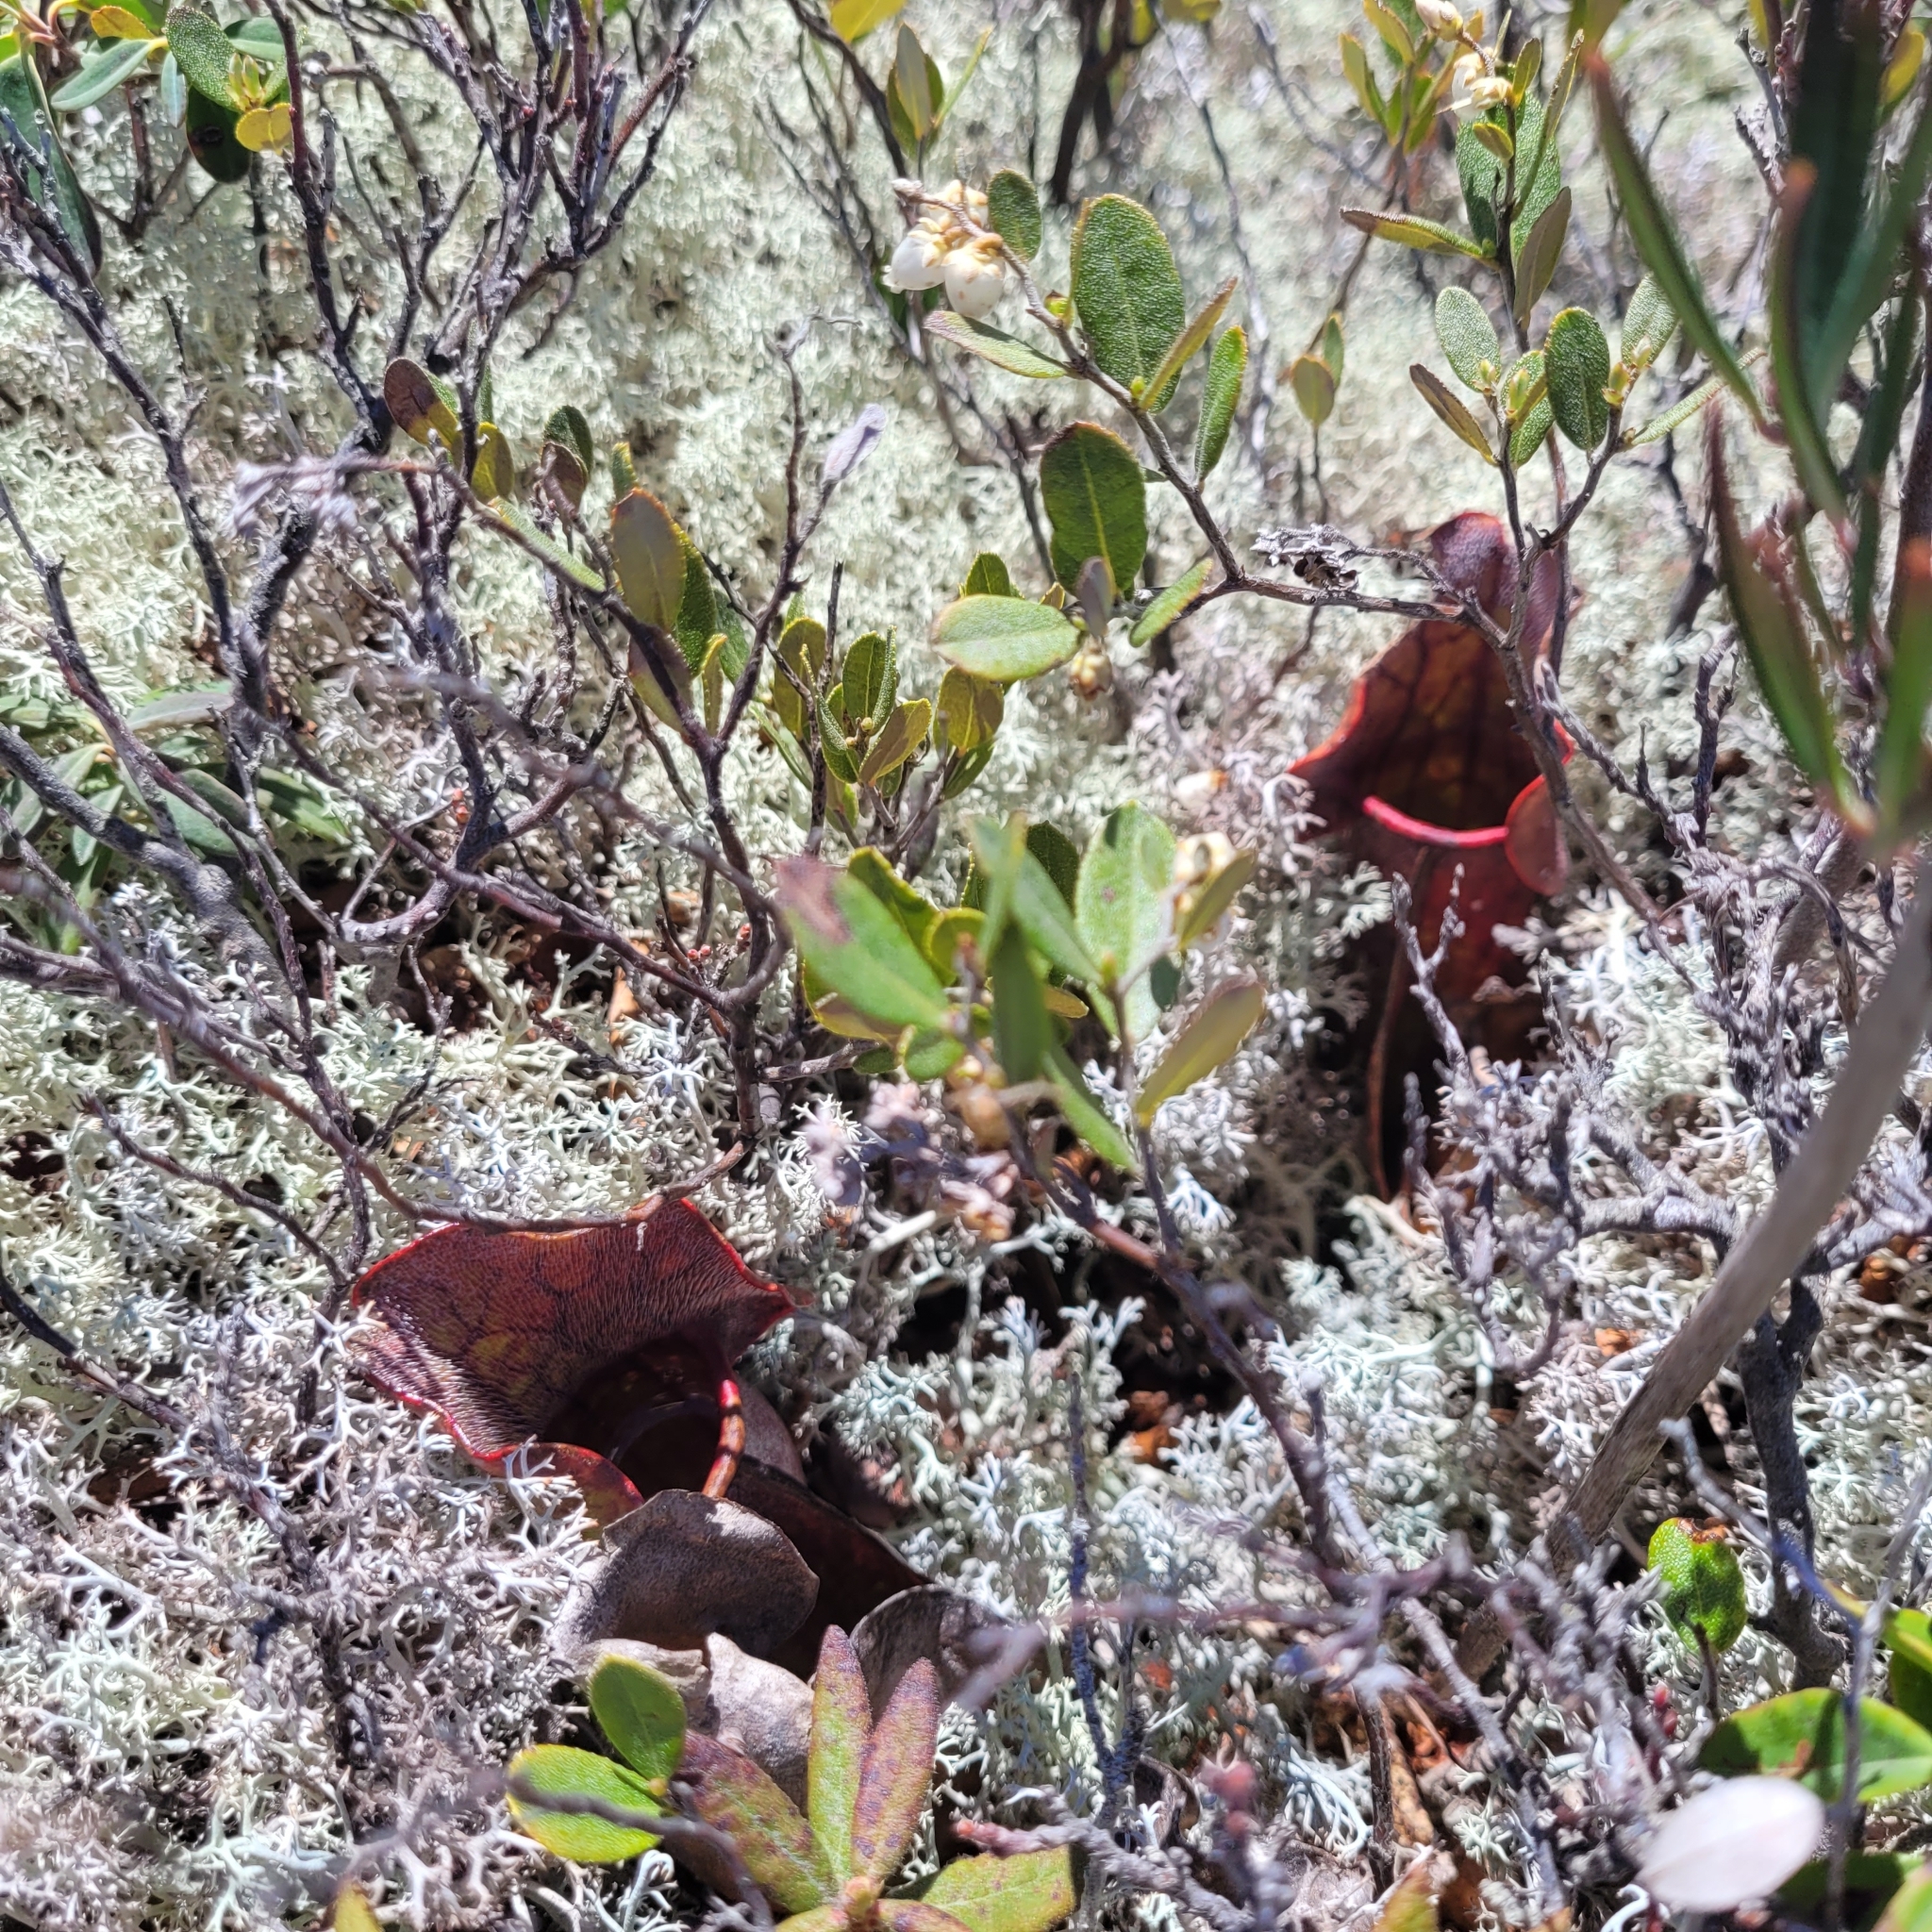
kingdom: Plantae
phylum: Tracheophyta
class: Magnoliopsida
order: Ericales
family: Sarraceniaceae
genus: Sarracenia
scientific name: Sarracenia purpurea
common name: Pitcherplant
